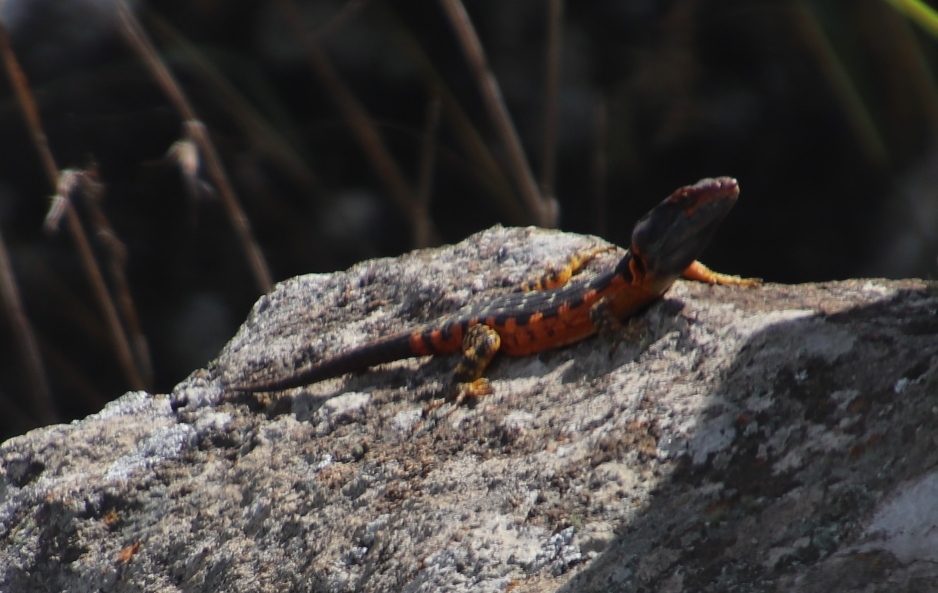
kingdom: Animalia
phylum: Chordata
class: Squamata
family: Cordylidae
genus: Pseudocordylus
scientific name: Pseudocordylus melanotus
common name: Highveld crag lizard
